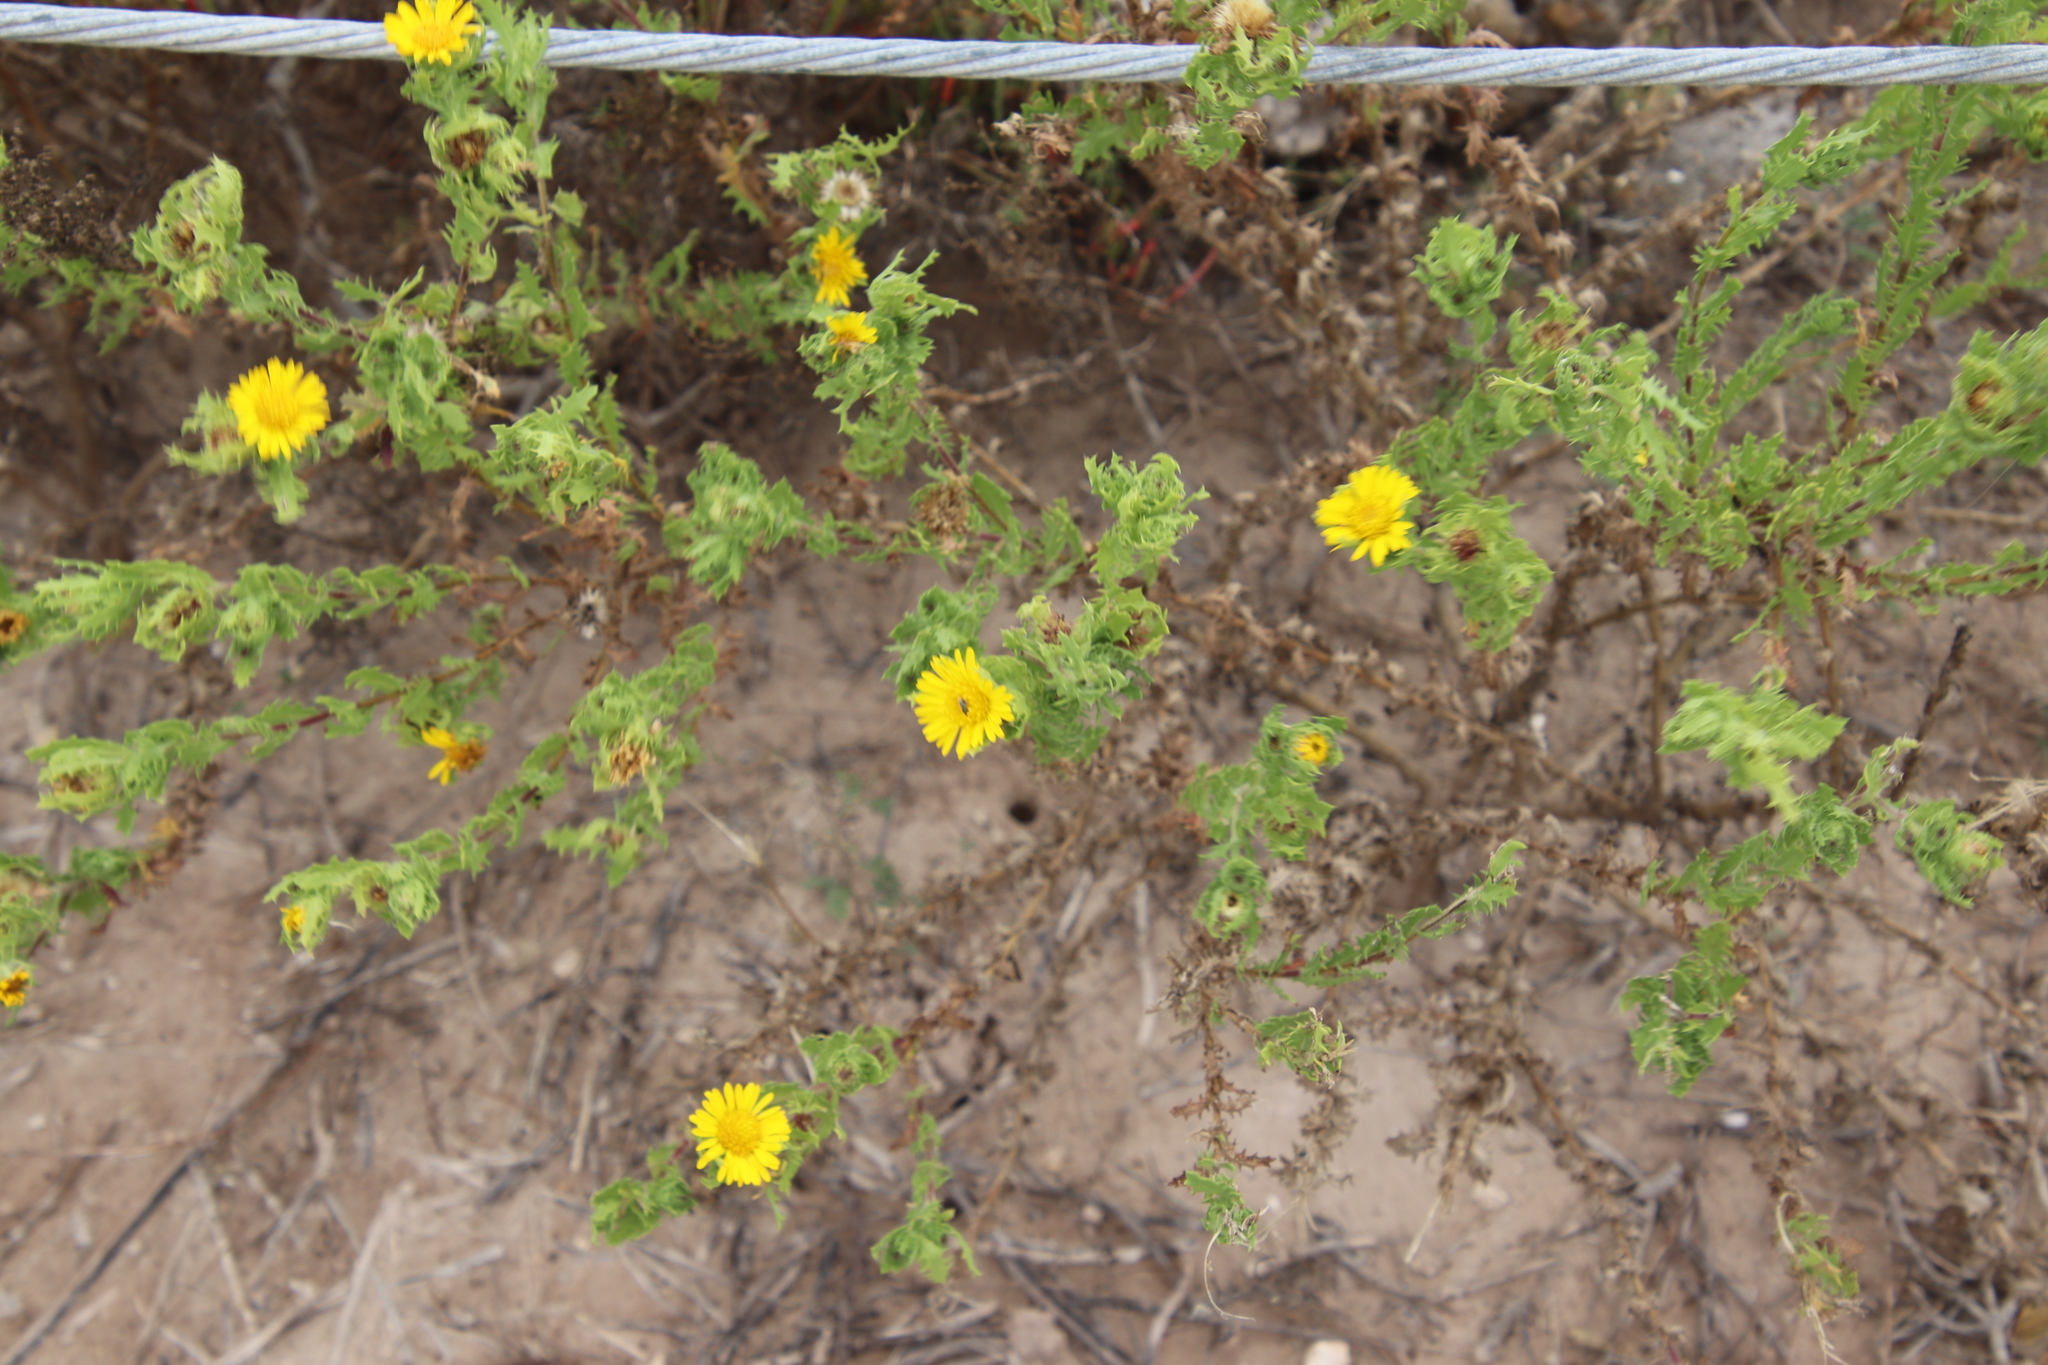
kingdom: Plantae
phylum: Tracheophyta
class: Magnoliopsida
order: Asterales
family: Asteraceae
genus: Rayjacksonia
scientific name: Rayjacksonia phyllocephala
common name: Gulf coast camphor daisy
